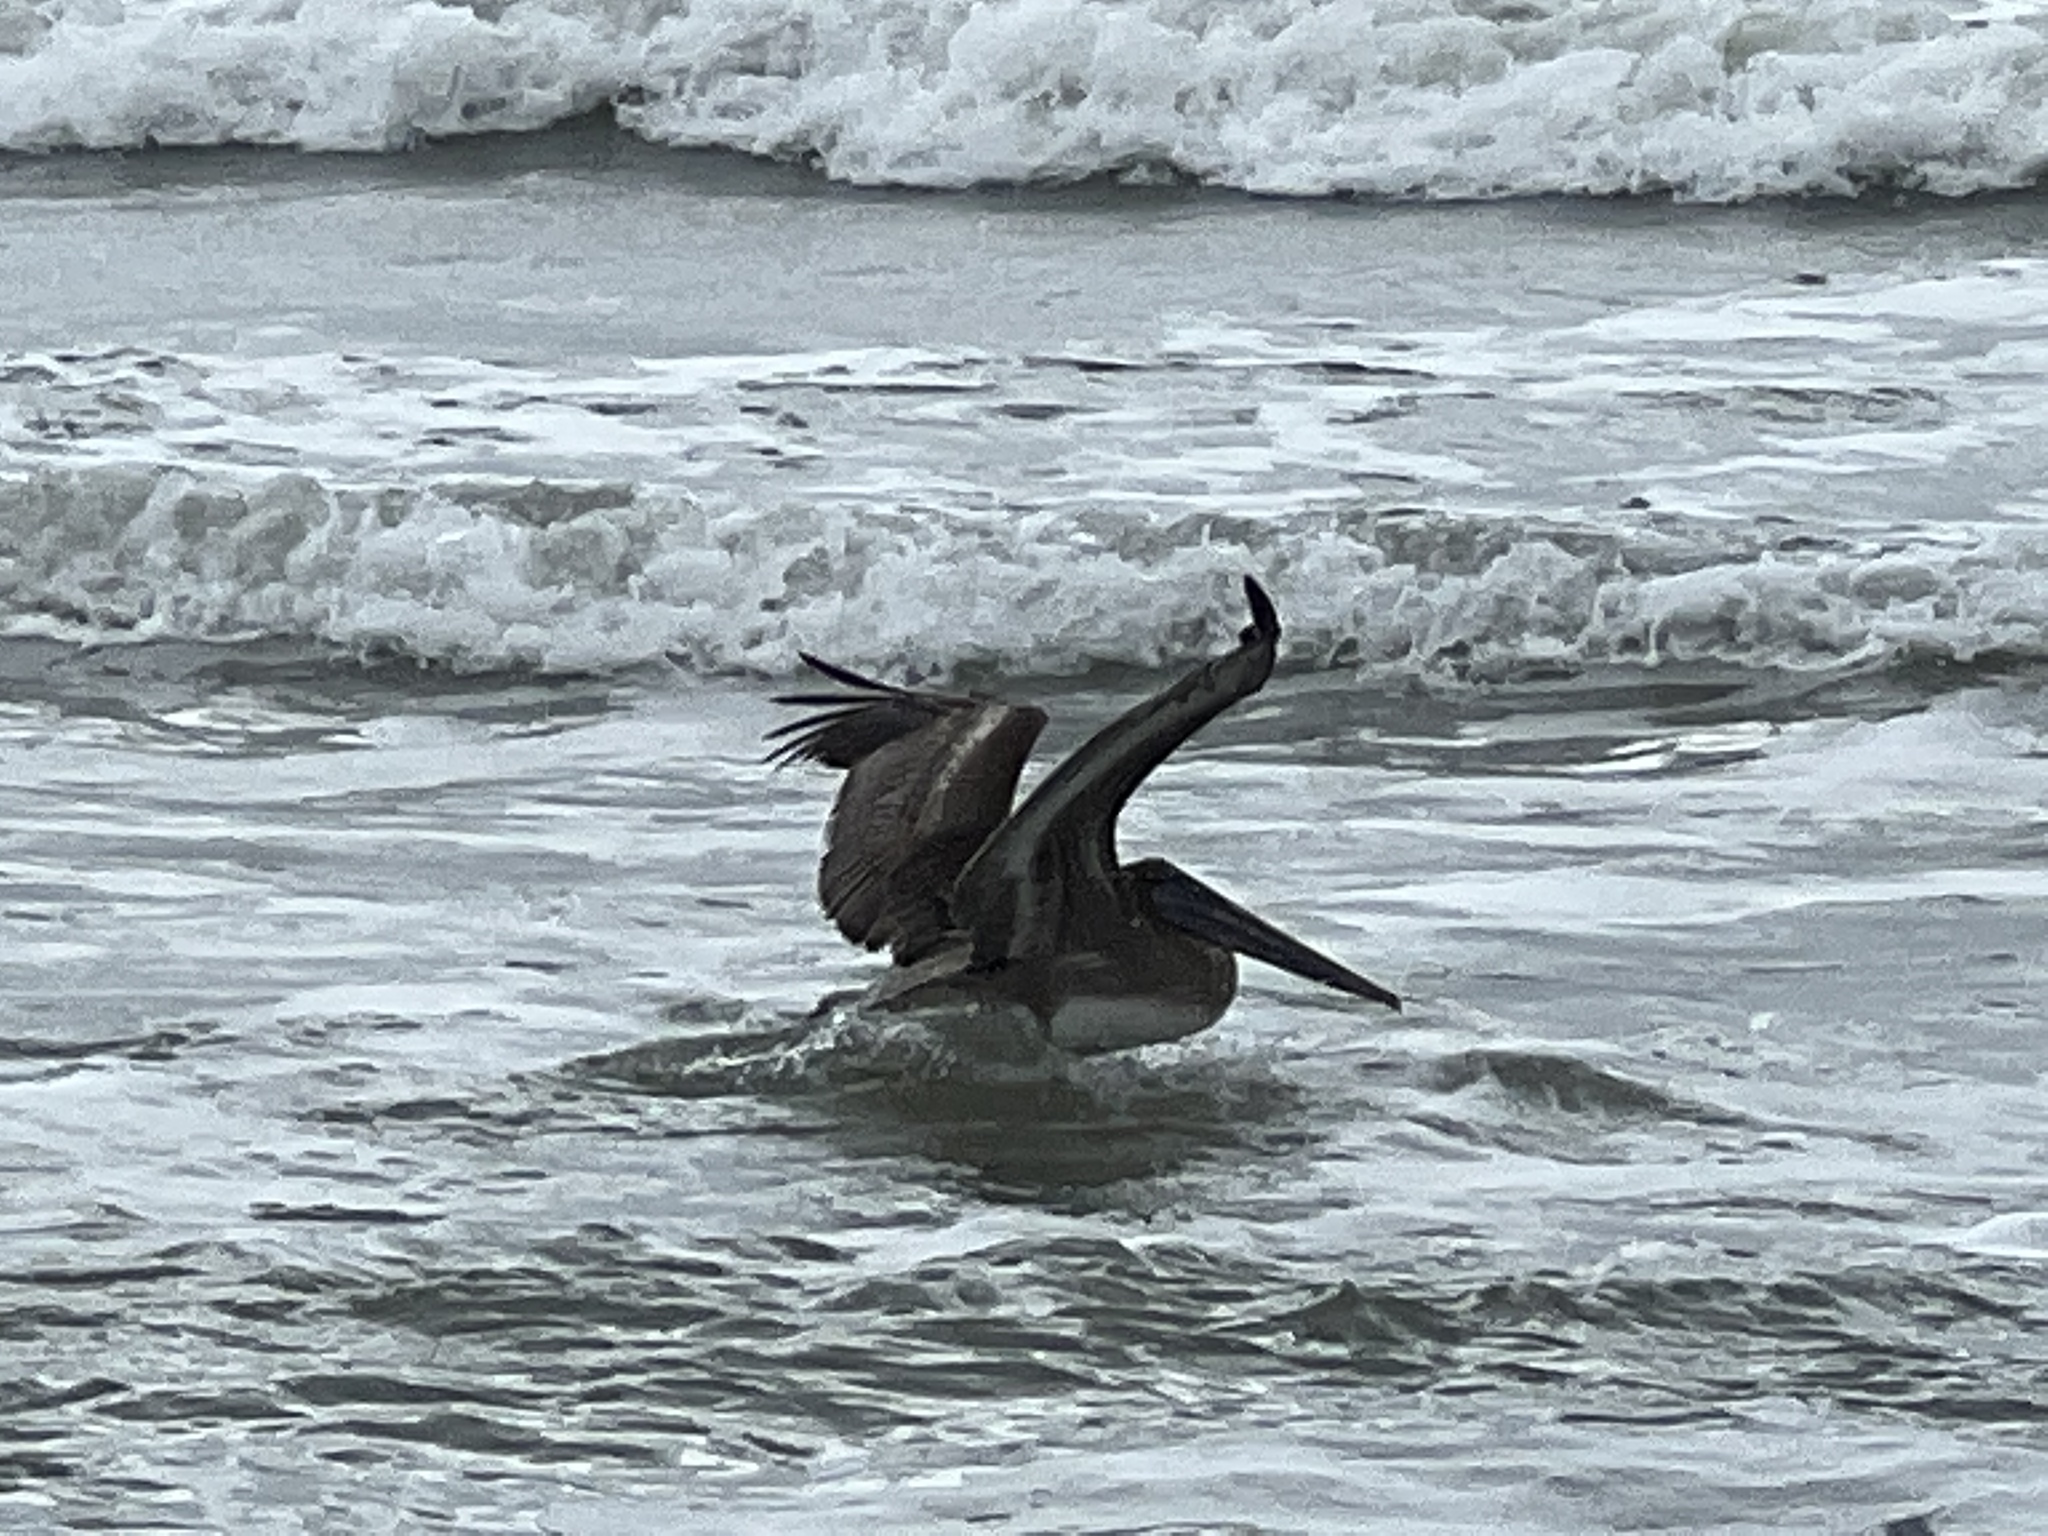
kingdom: Animalia
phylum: Chordata
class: Aves
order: Pelecaniformes
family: Pelecanidae
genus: Pelecanus
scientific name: Pelecanus occidentalis
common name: Brown pelican
